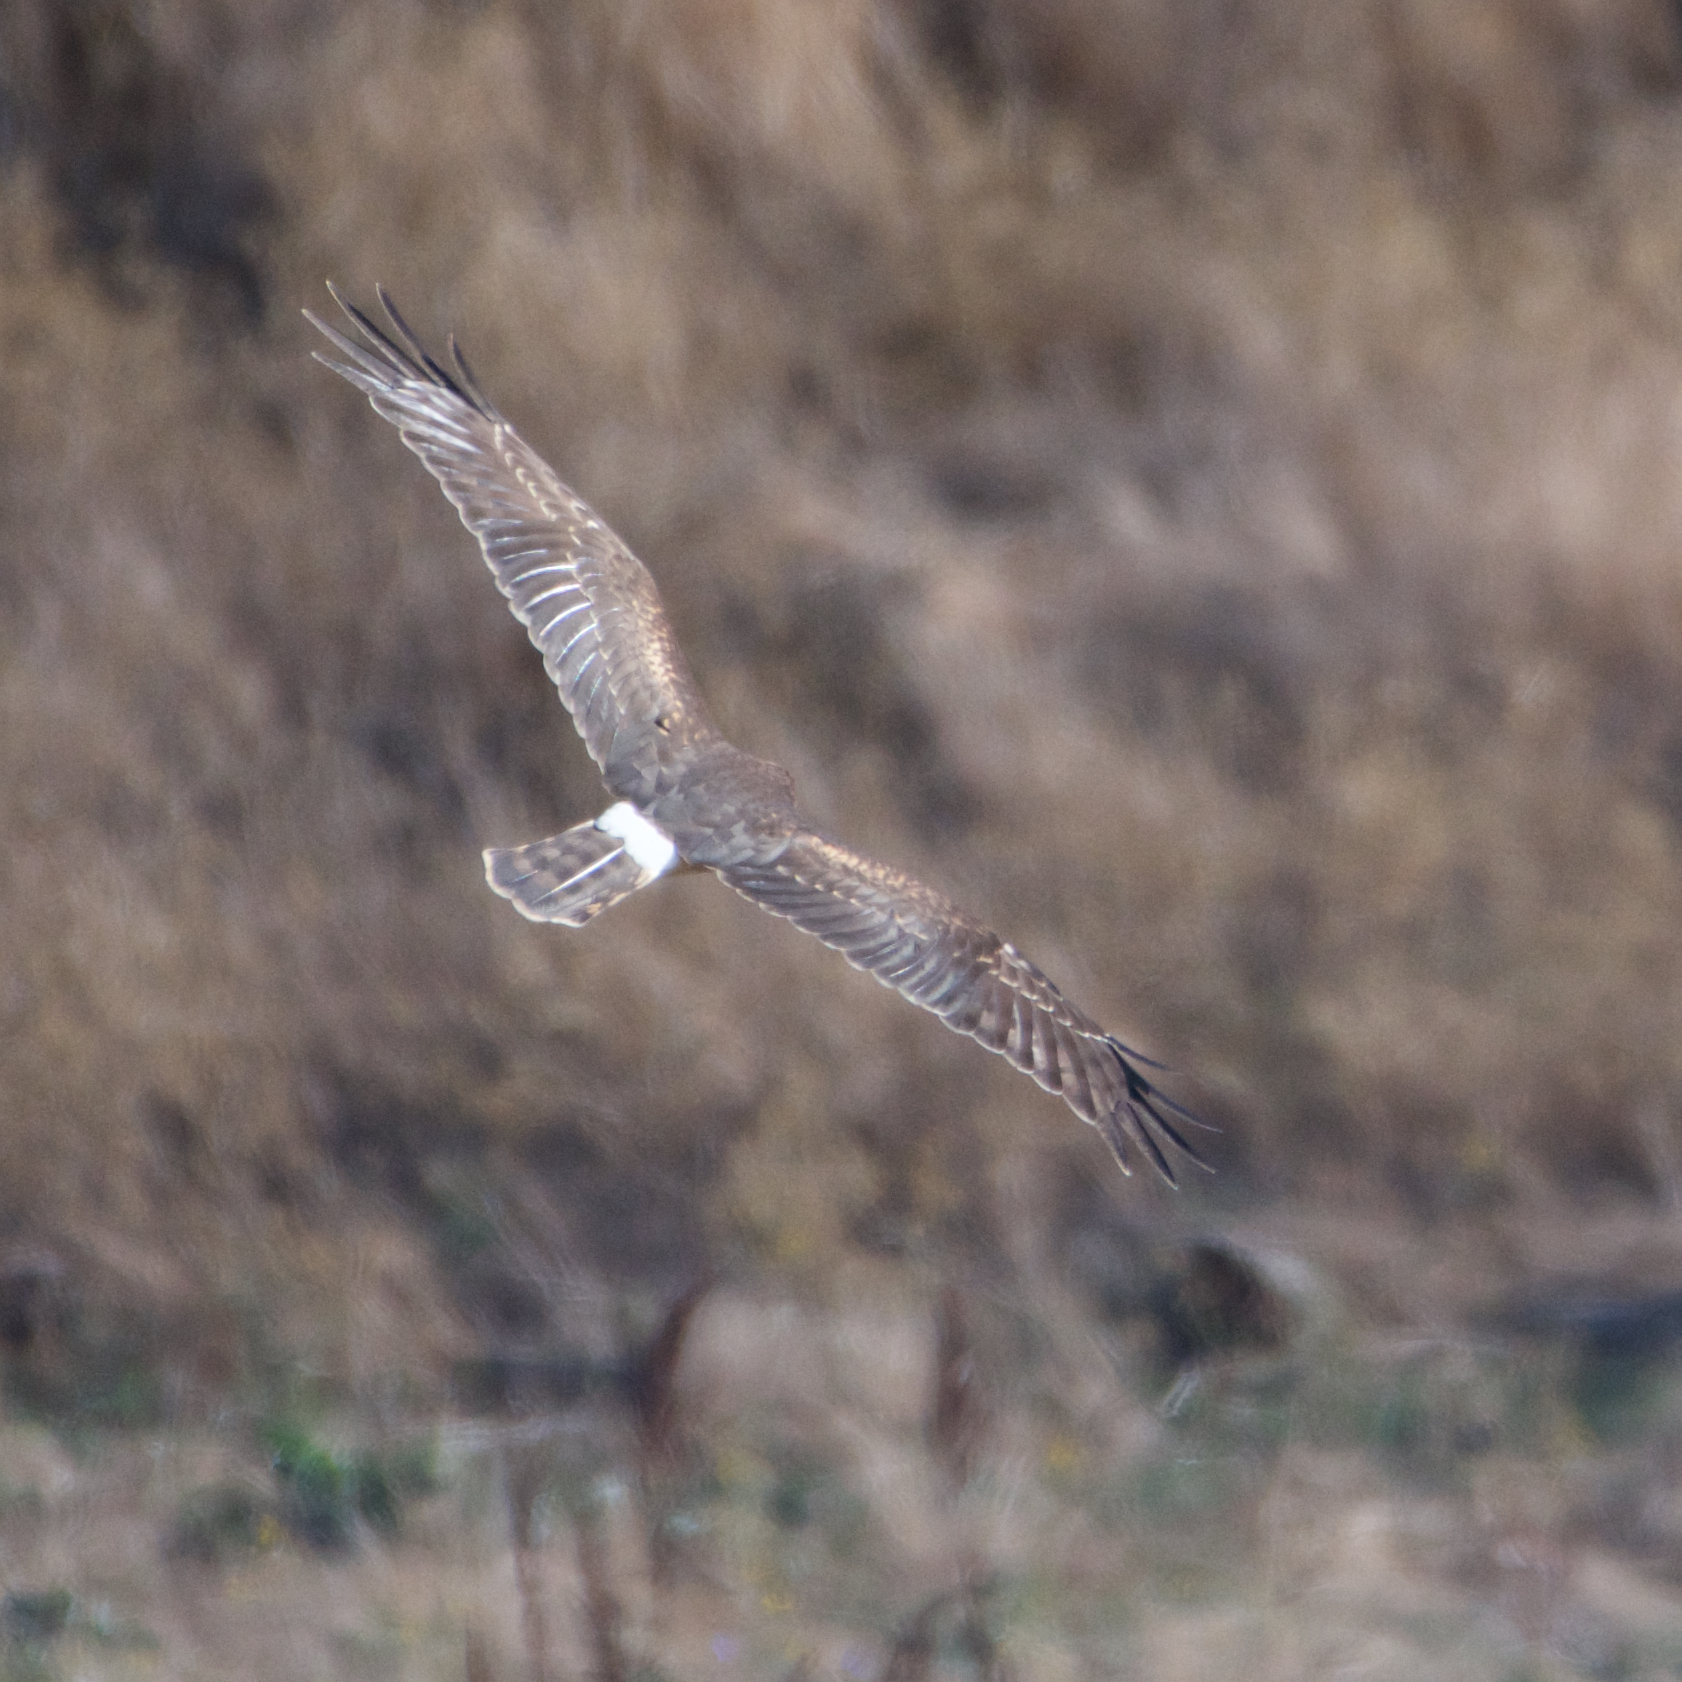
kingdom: Animalia
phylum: Chordata
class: Aves
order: Accipitriformes
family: Accipitridae
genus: Circus
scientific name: Circus cyaneus
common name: Hen harrier
